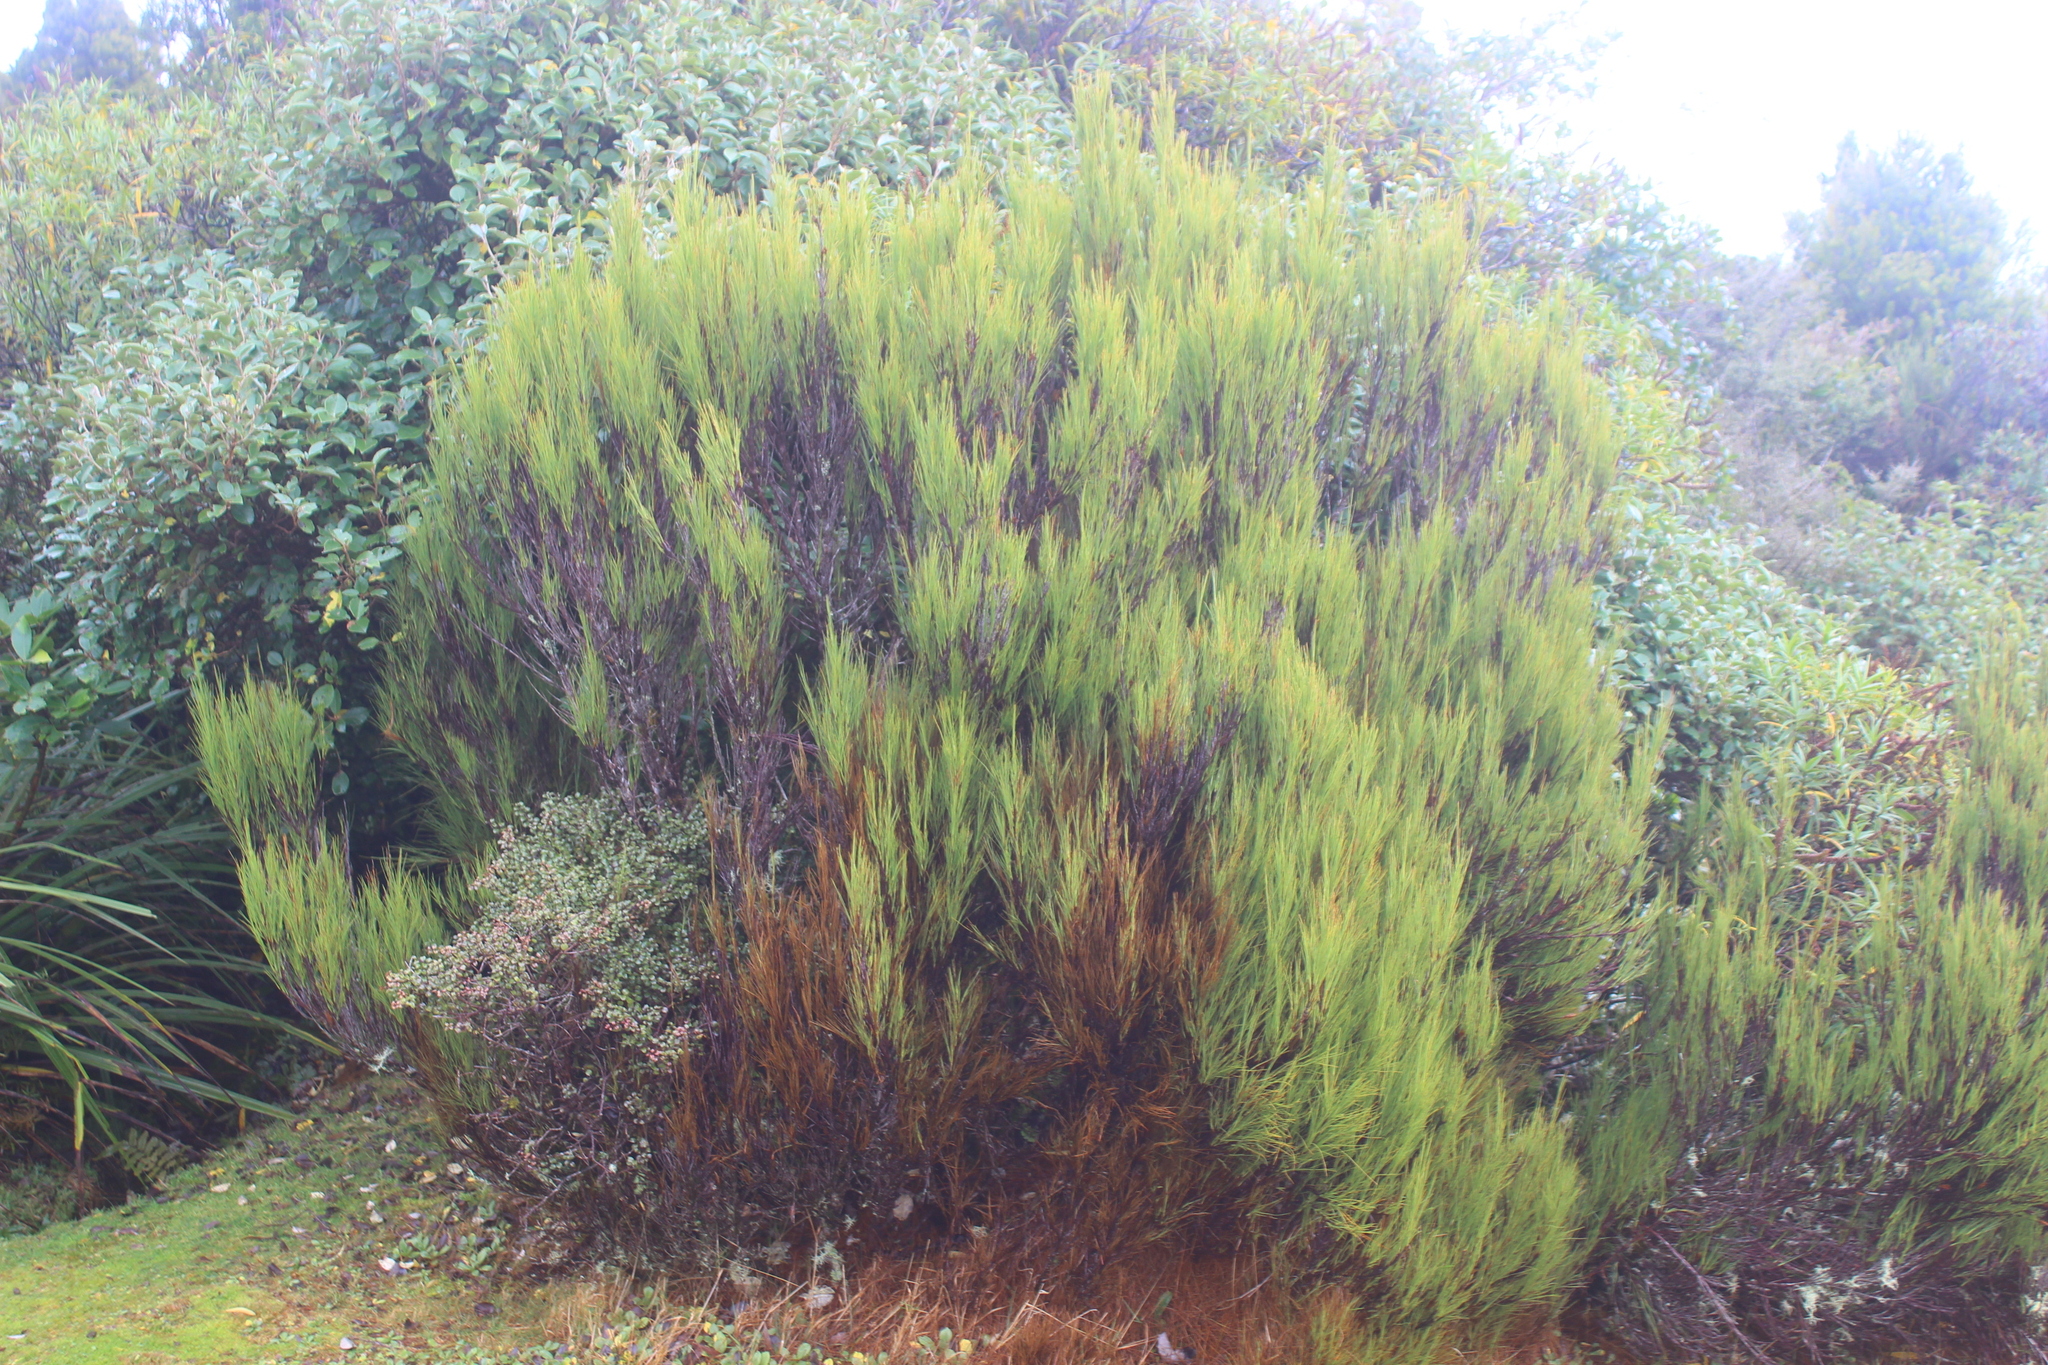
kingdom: Plantae
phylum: Tracheophyta
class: Magnoliopsida
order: Ericales
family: Ericaceae
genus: Dracophyllum
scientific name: Dracophyllum filifolium
